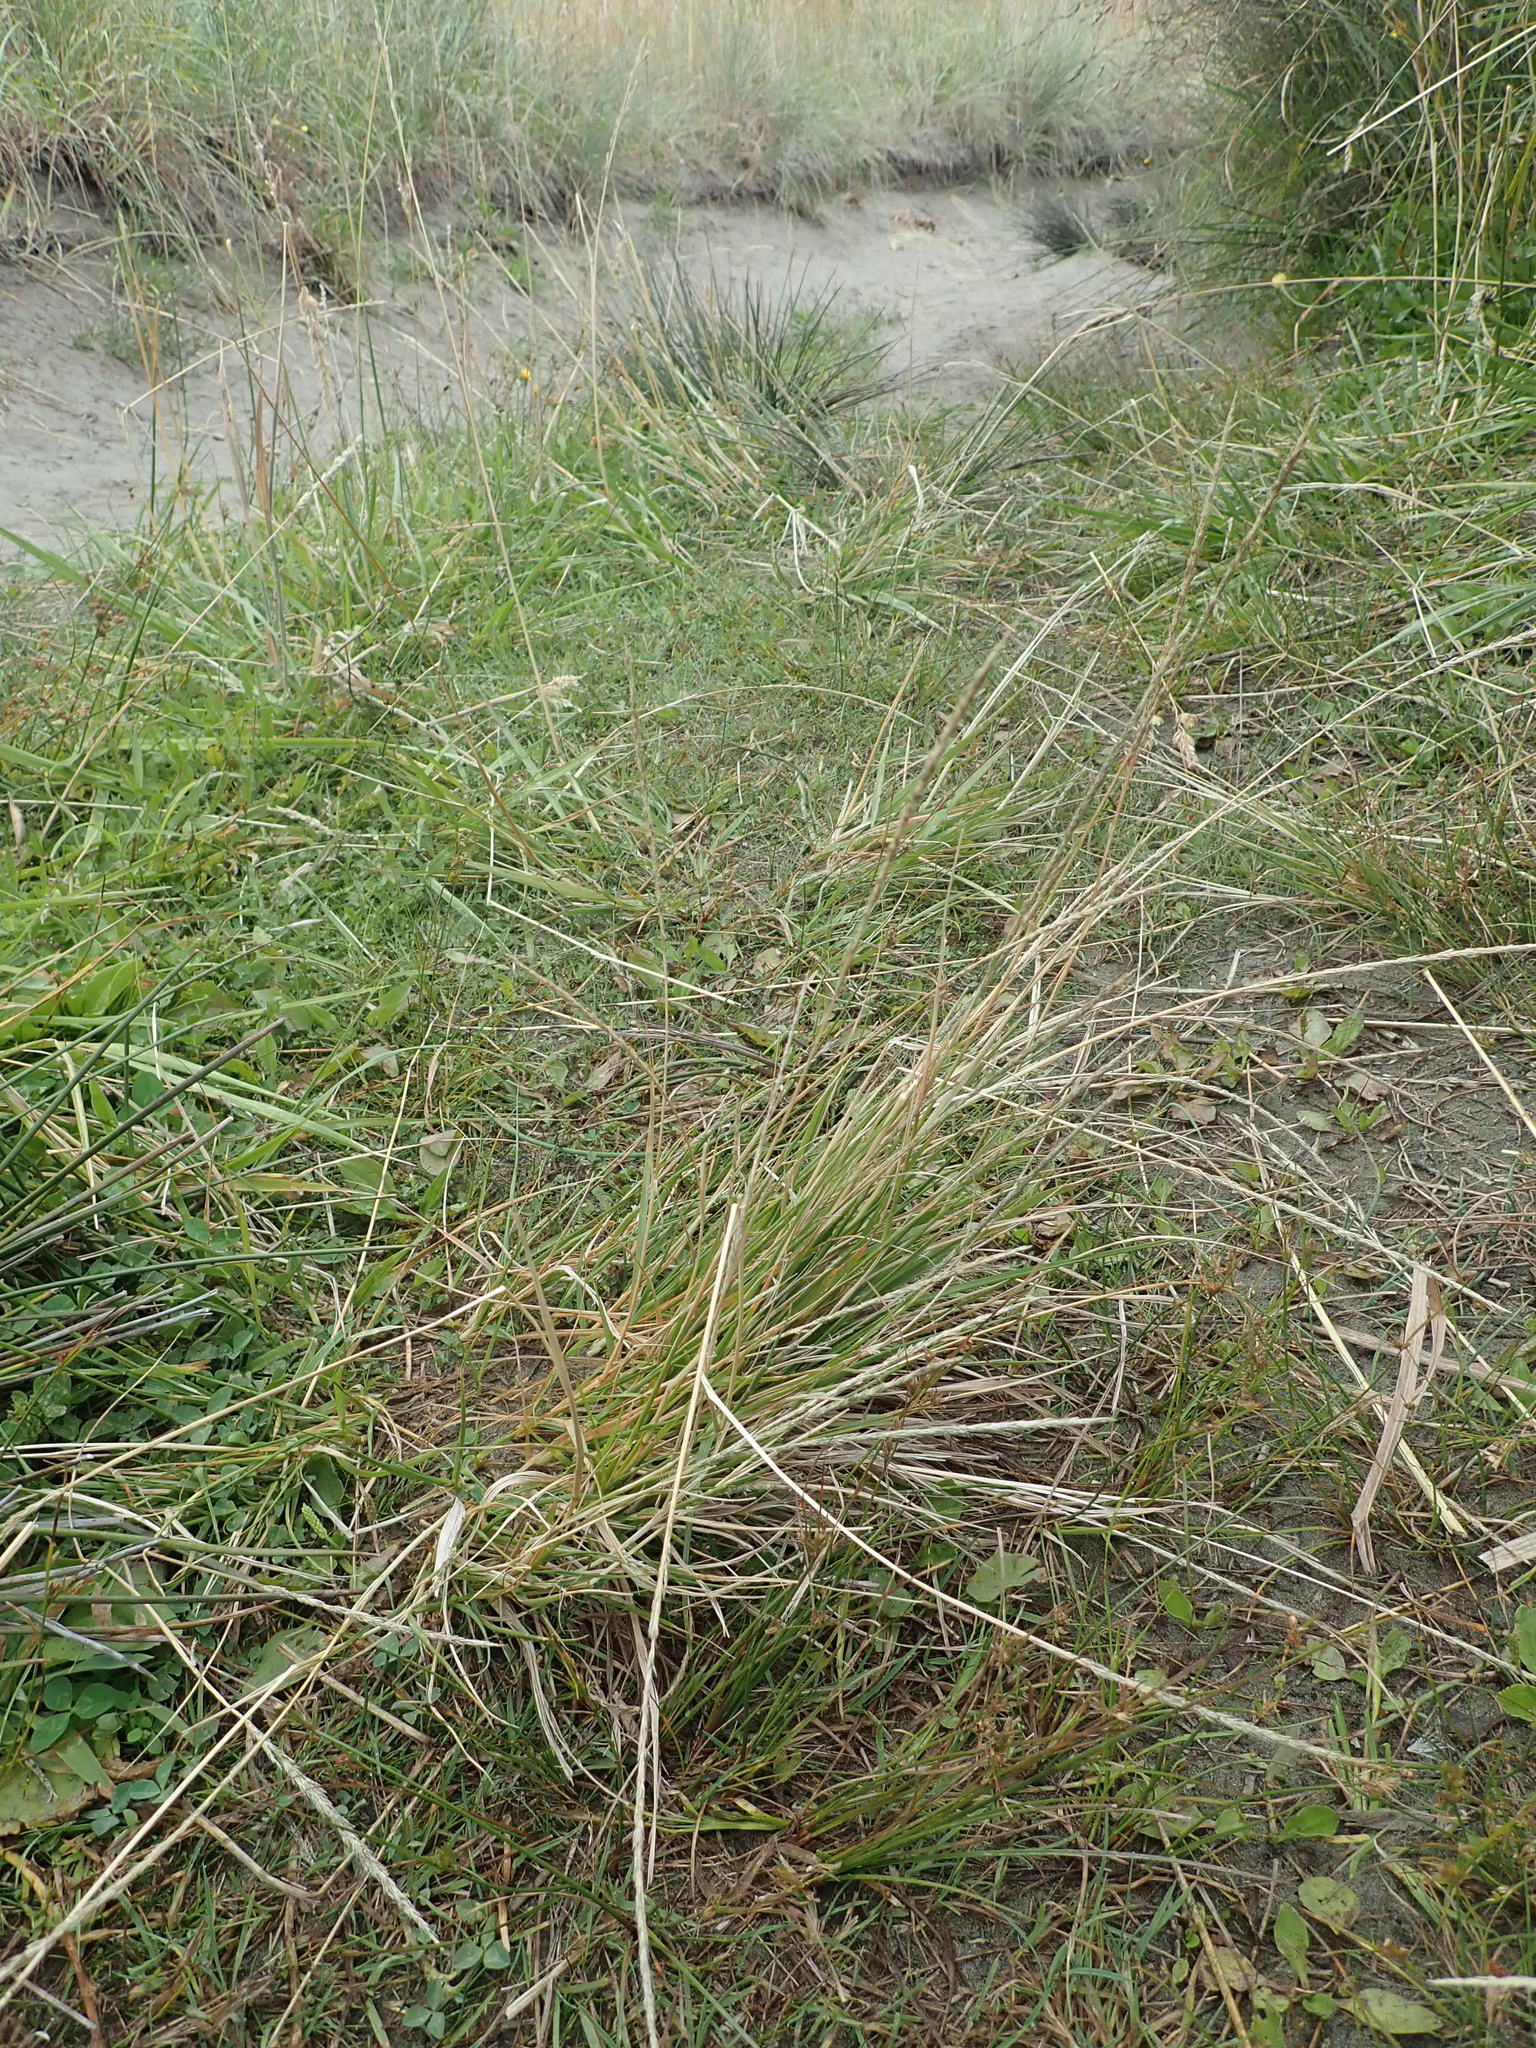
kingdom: Plantae
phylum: Tracheophyta
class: Liliopsida
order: Poales
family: Poaceae
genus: Sporobolus
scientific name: Sporobolus africanus
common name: African dropseed
